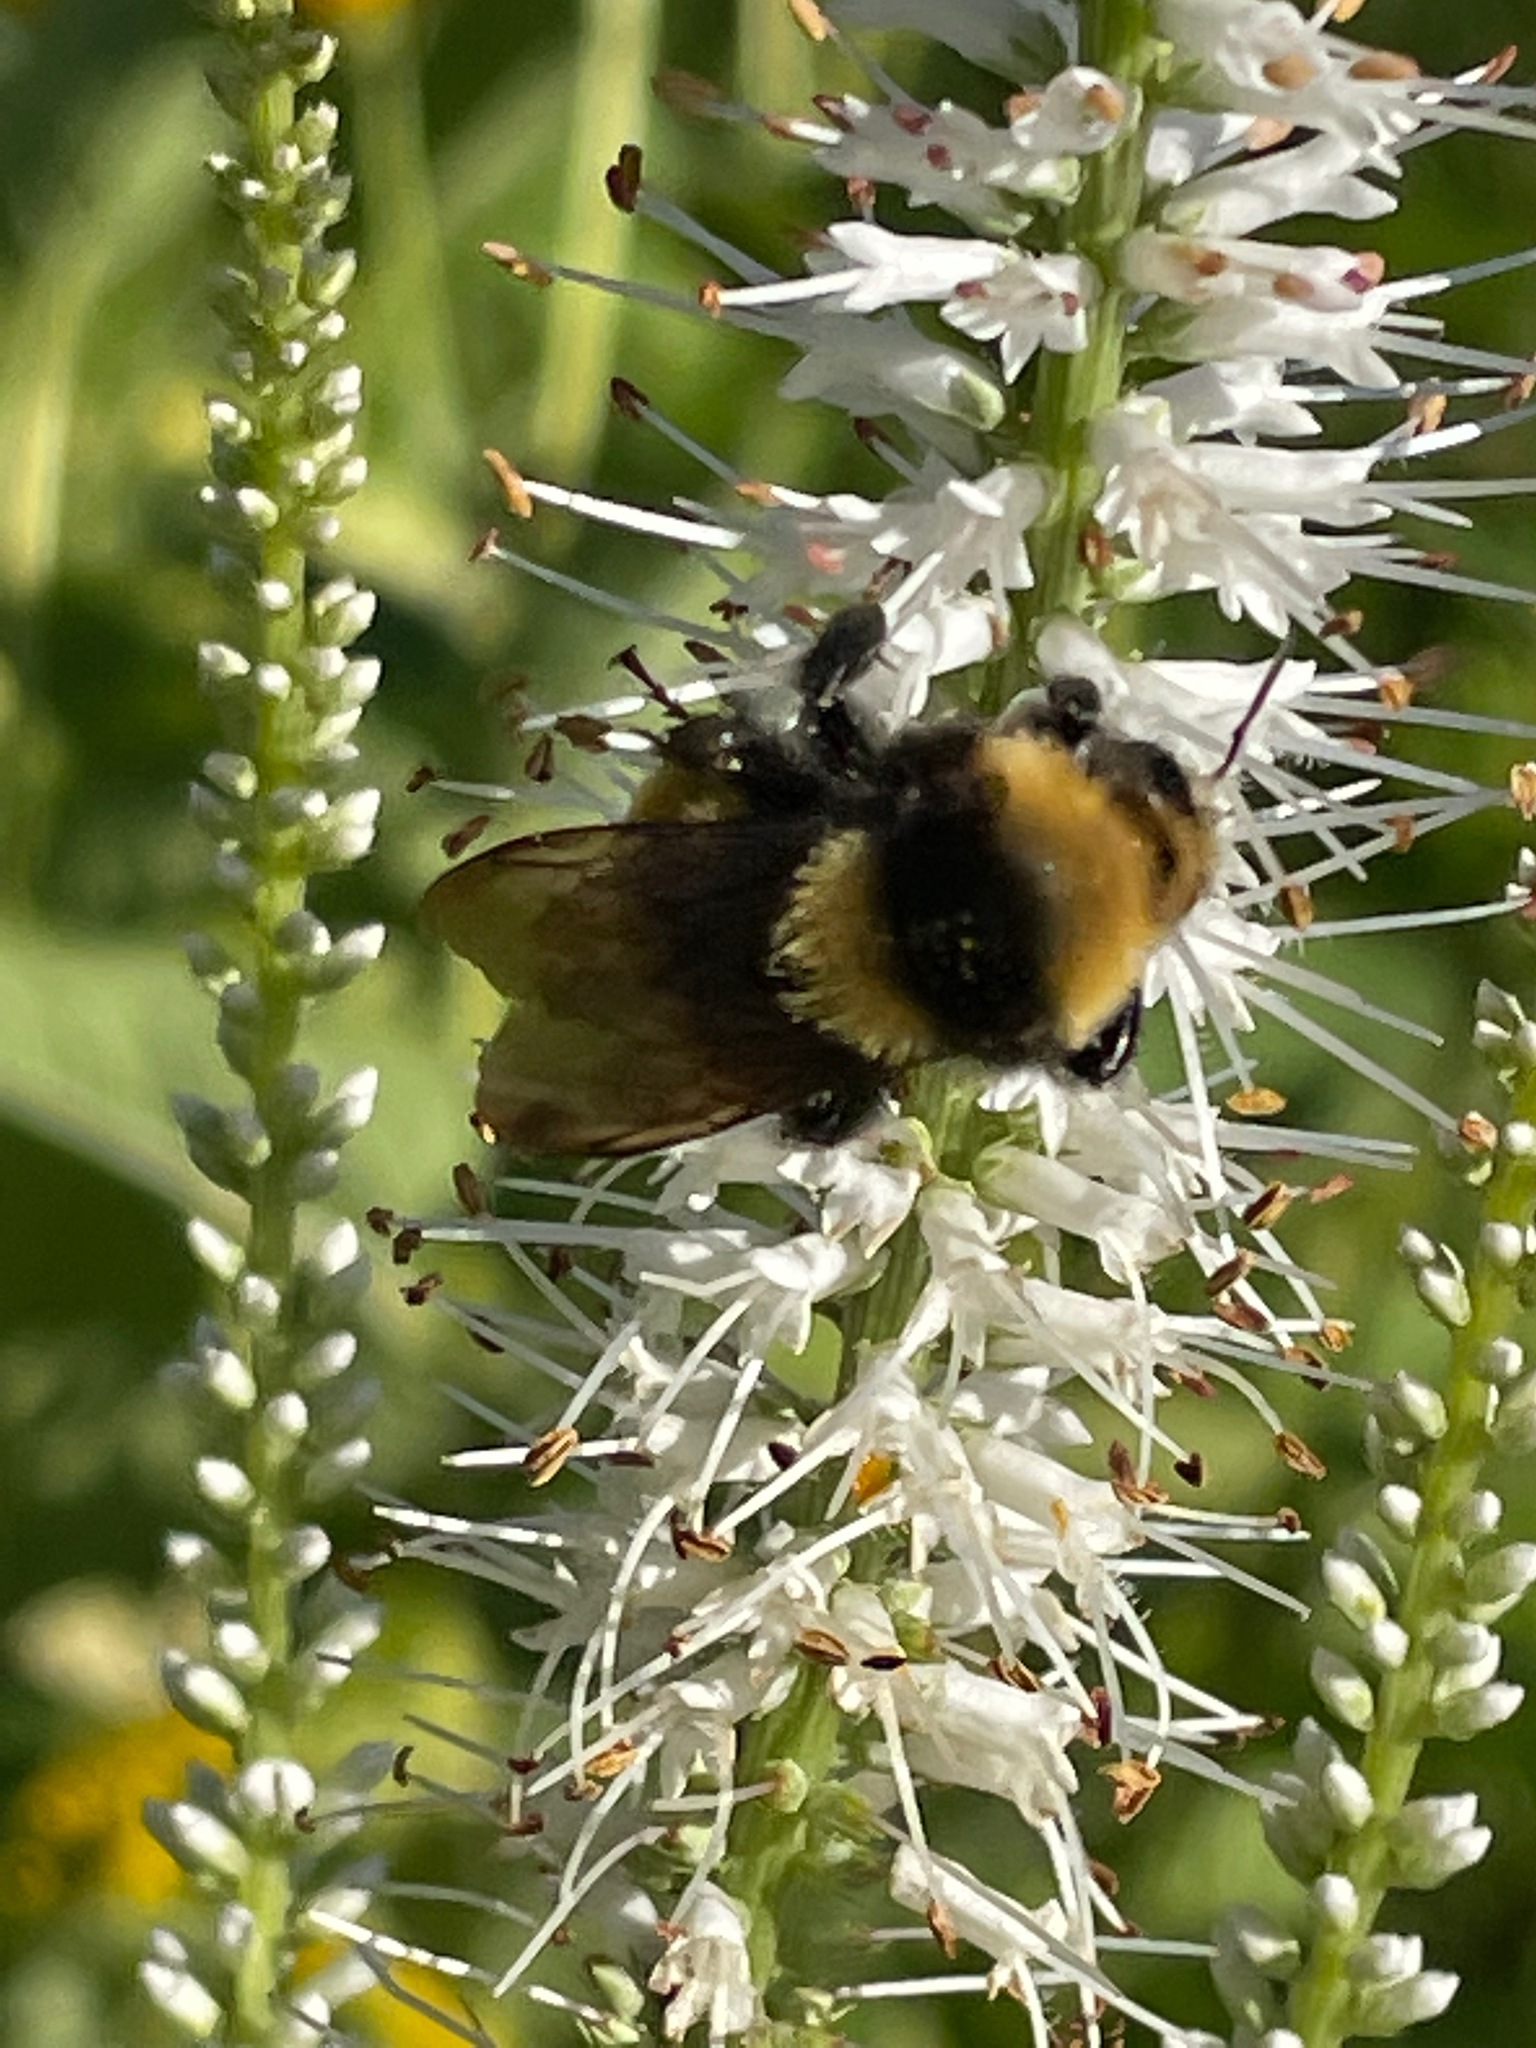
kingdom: Animalia
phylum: Arthropoda
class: Insecta
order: Hymenoptera
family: Apidae
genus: Bombus
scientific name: Bombus borealis
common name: Northern amber bumble bee
